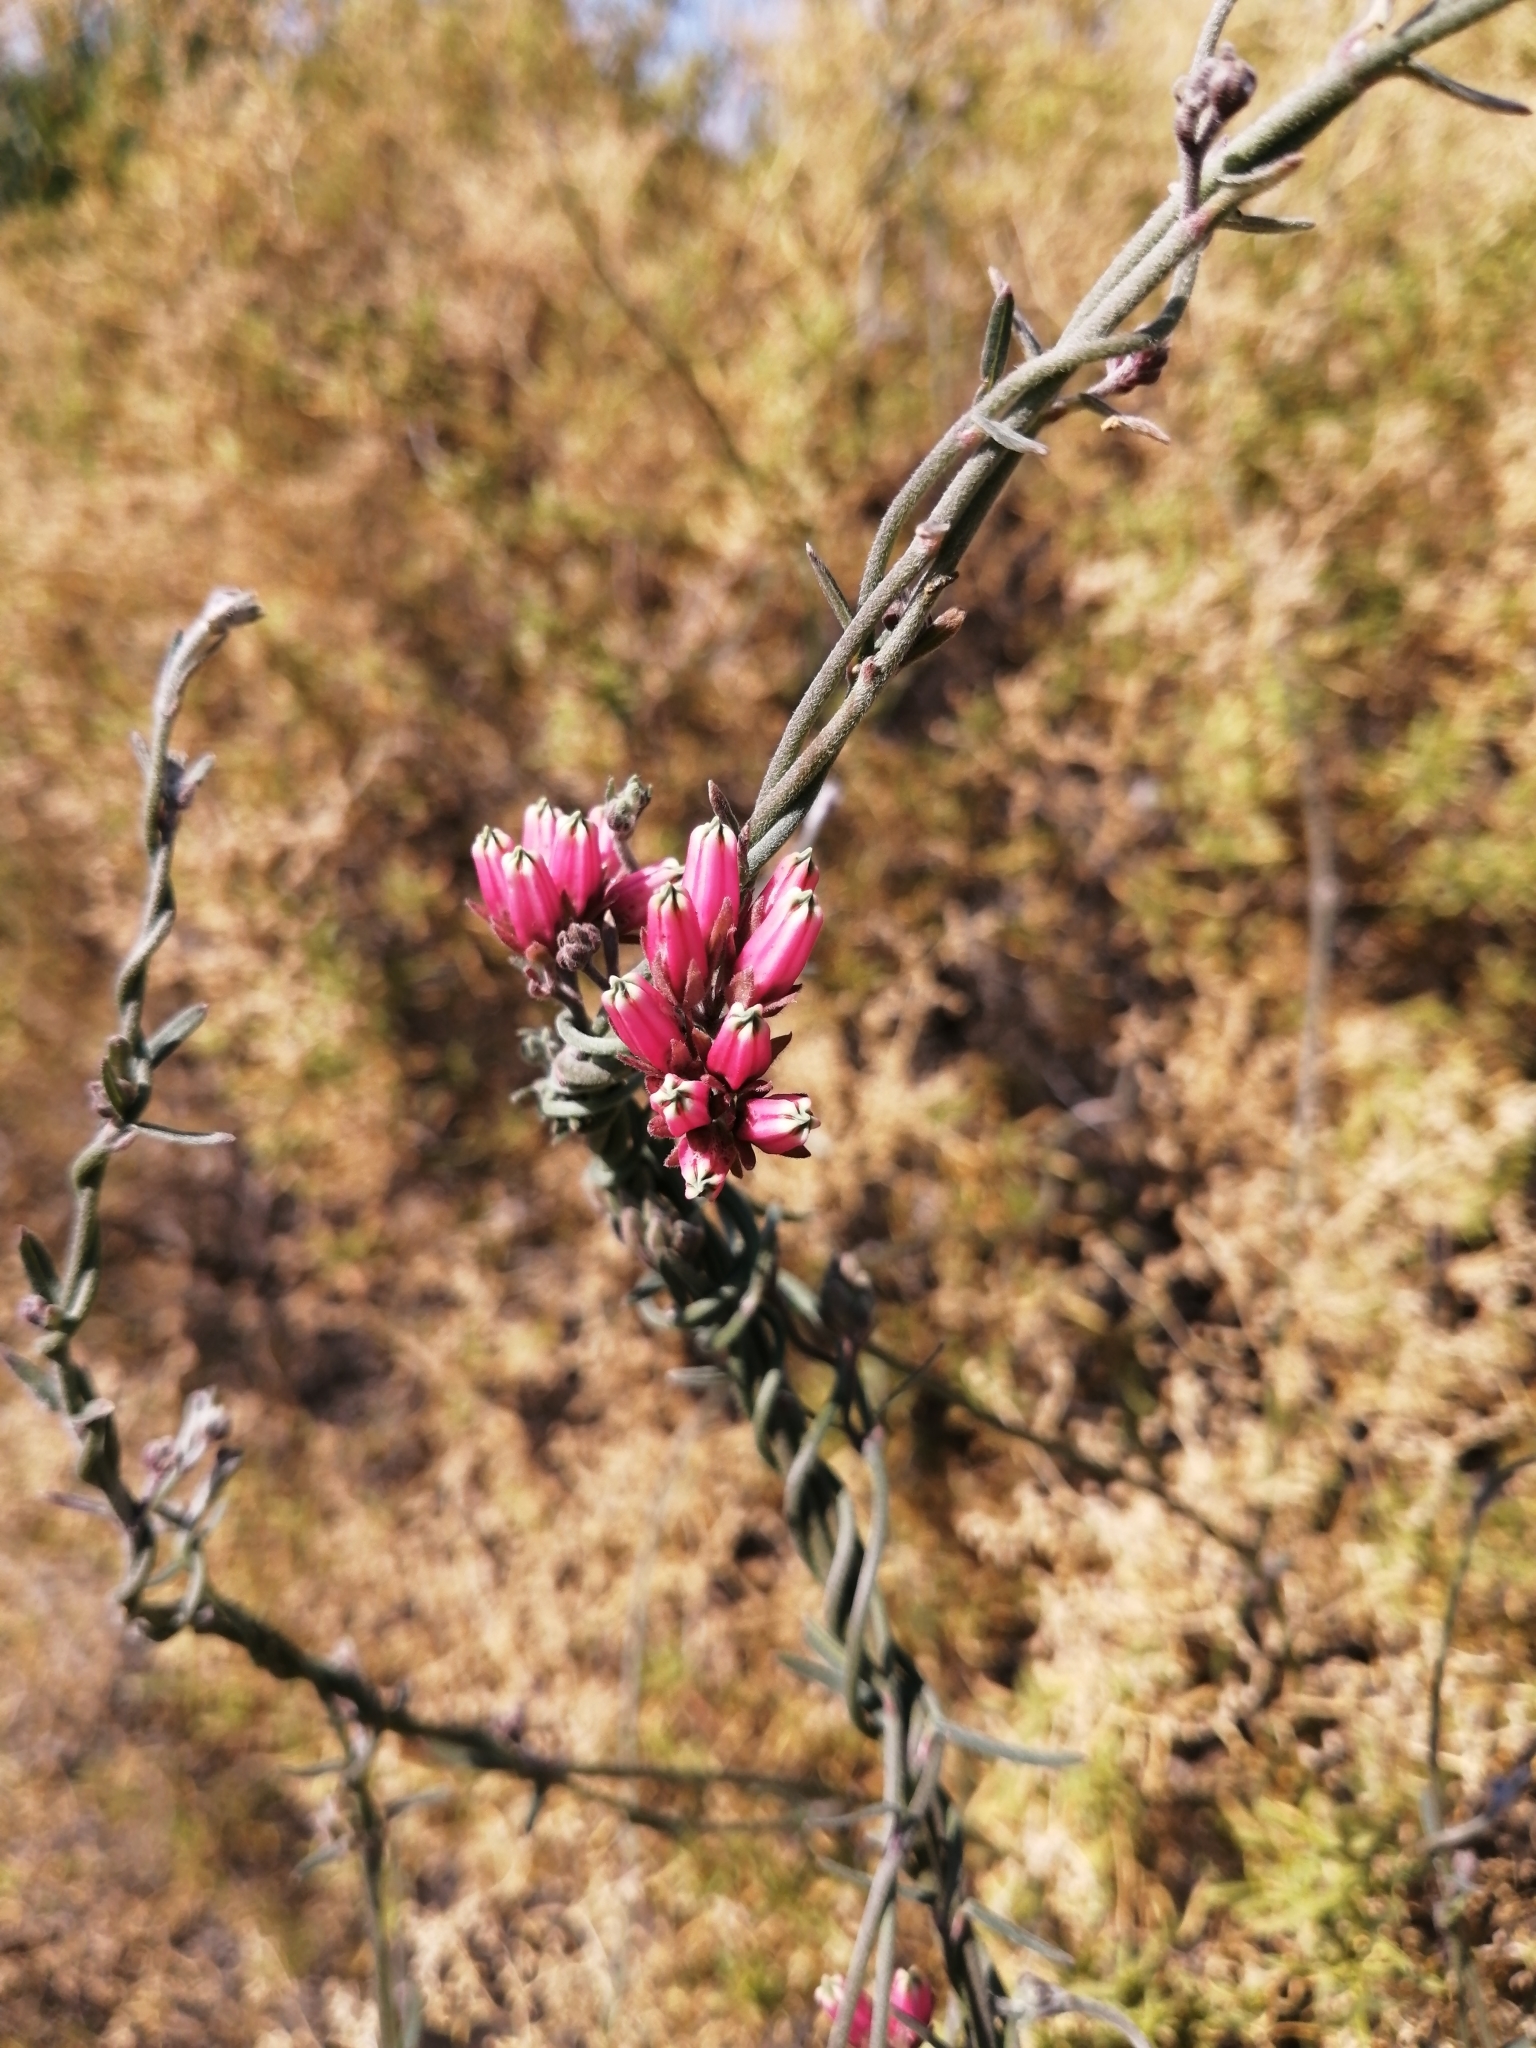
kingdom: Plantae
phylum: Tracheophyta
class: Magnoliopsida
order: Gentianales
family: Apocynaceae
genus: Microloma
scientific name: Microloma sagittatum
